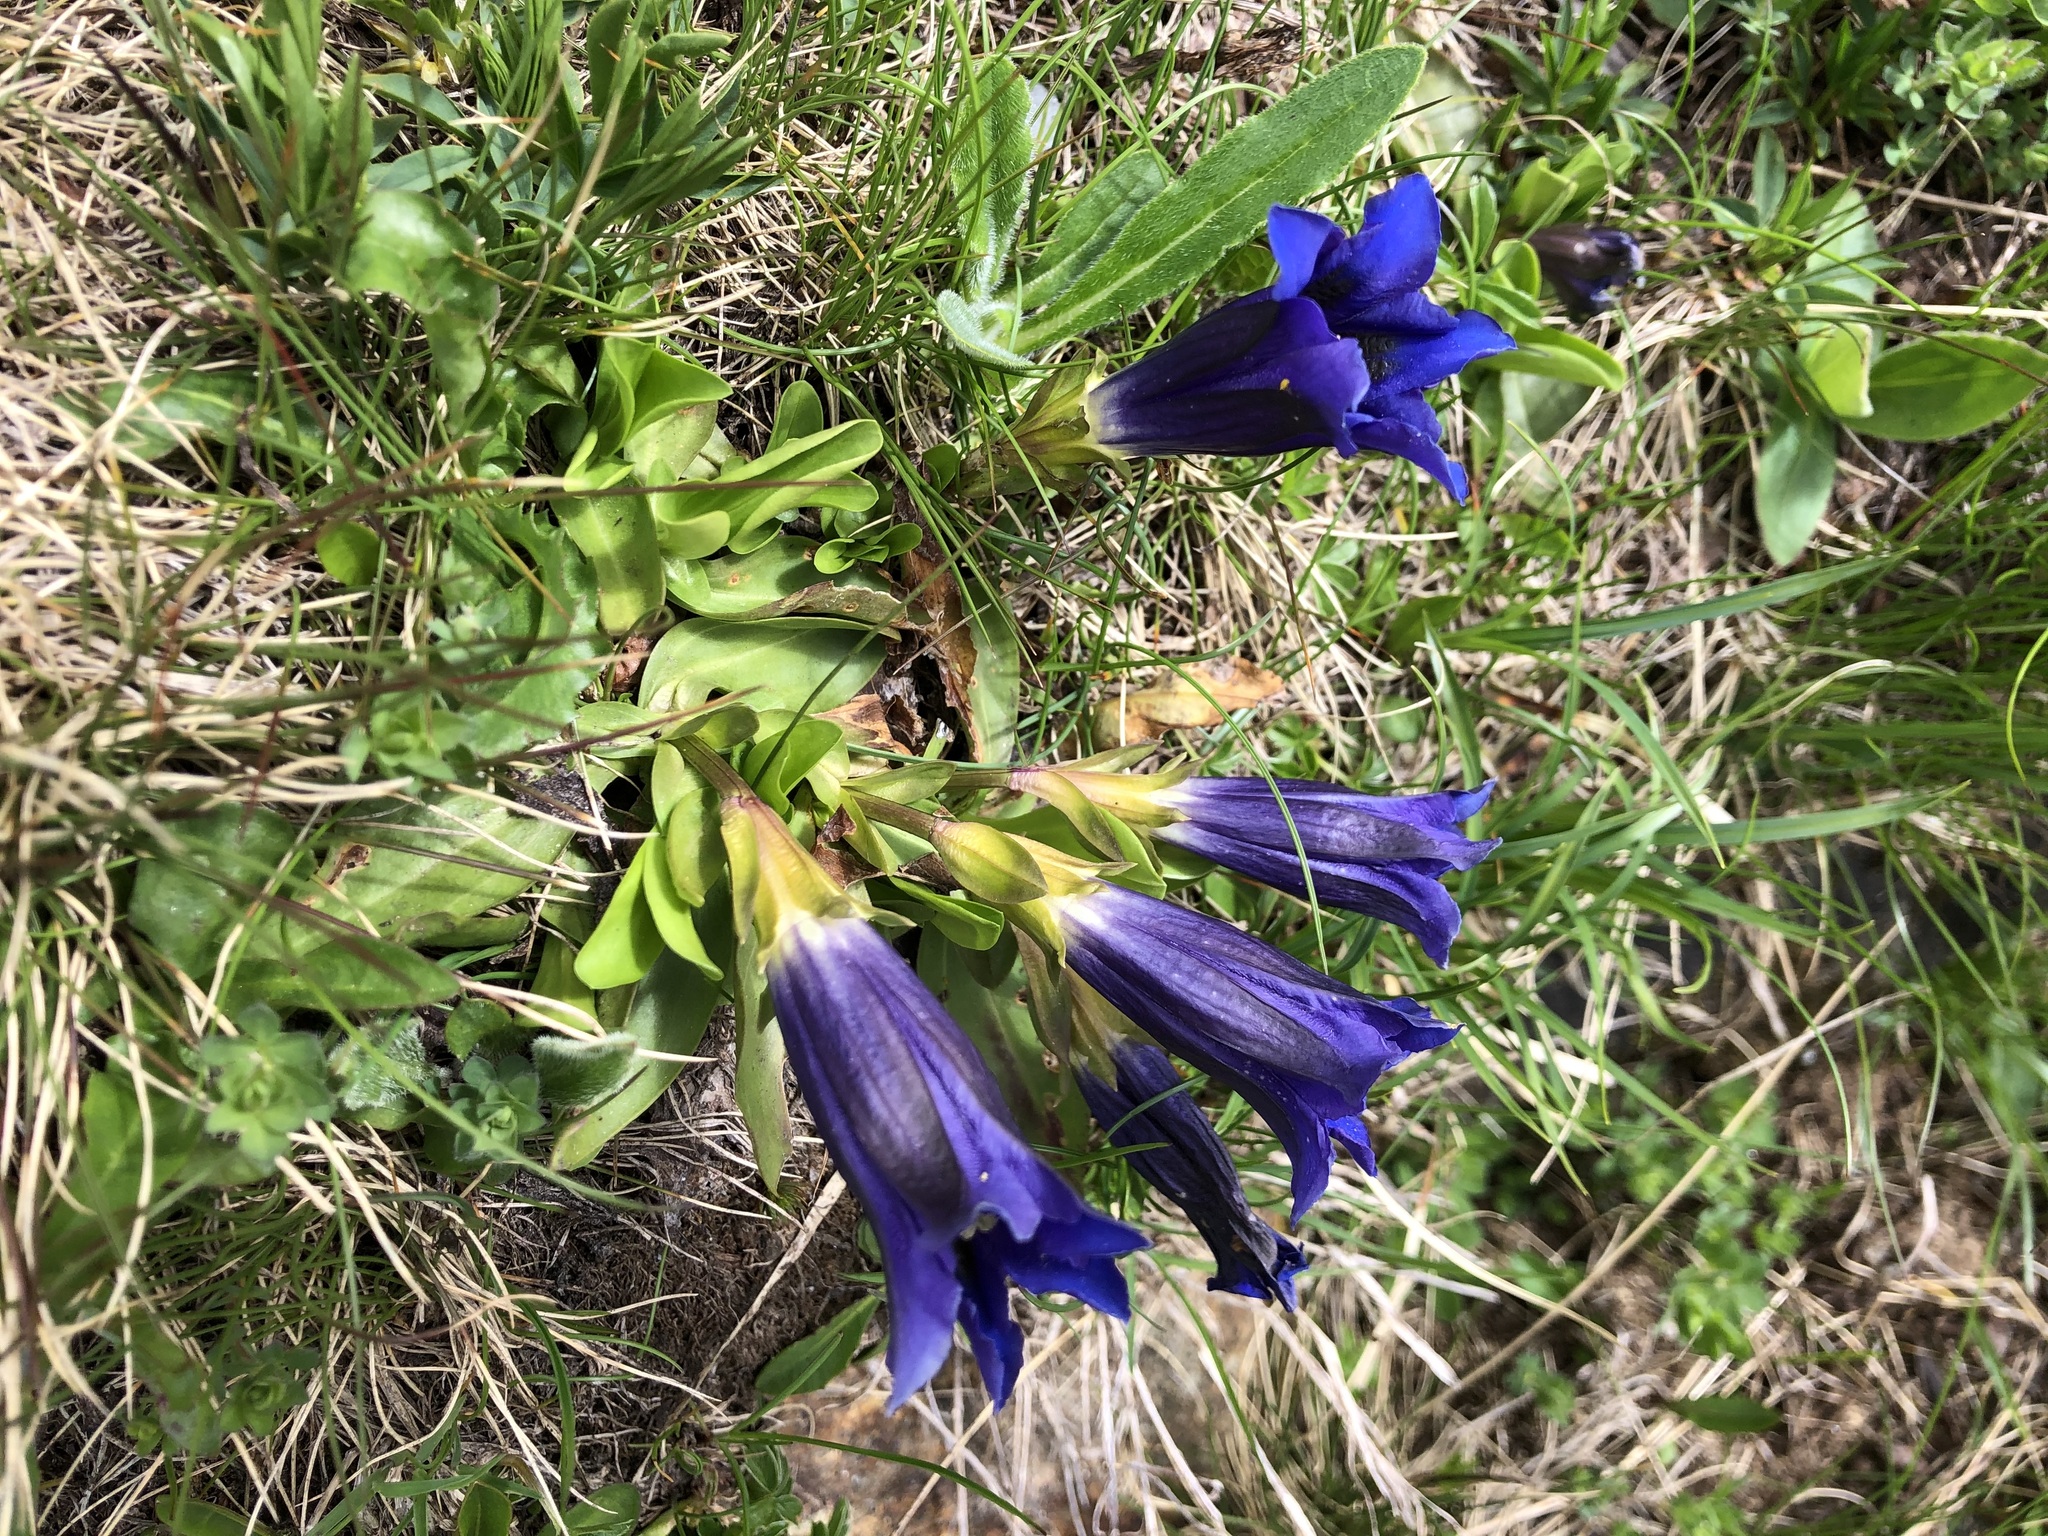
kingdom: Plantae
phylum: Tracheophyta
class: Magnoliopsida
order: Gentianales
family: Gentianaceae
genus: Gentiana
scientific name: Gentiana acaulis
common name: Trumpet gentian
